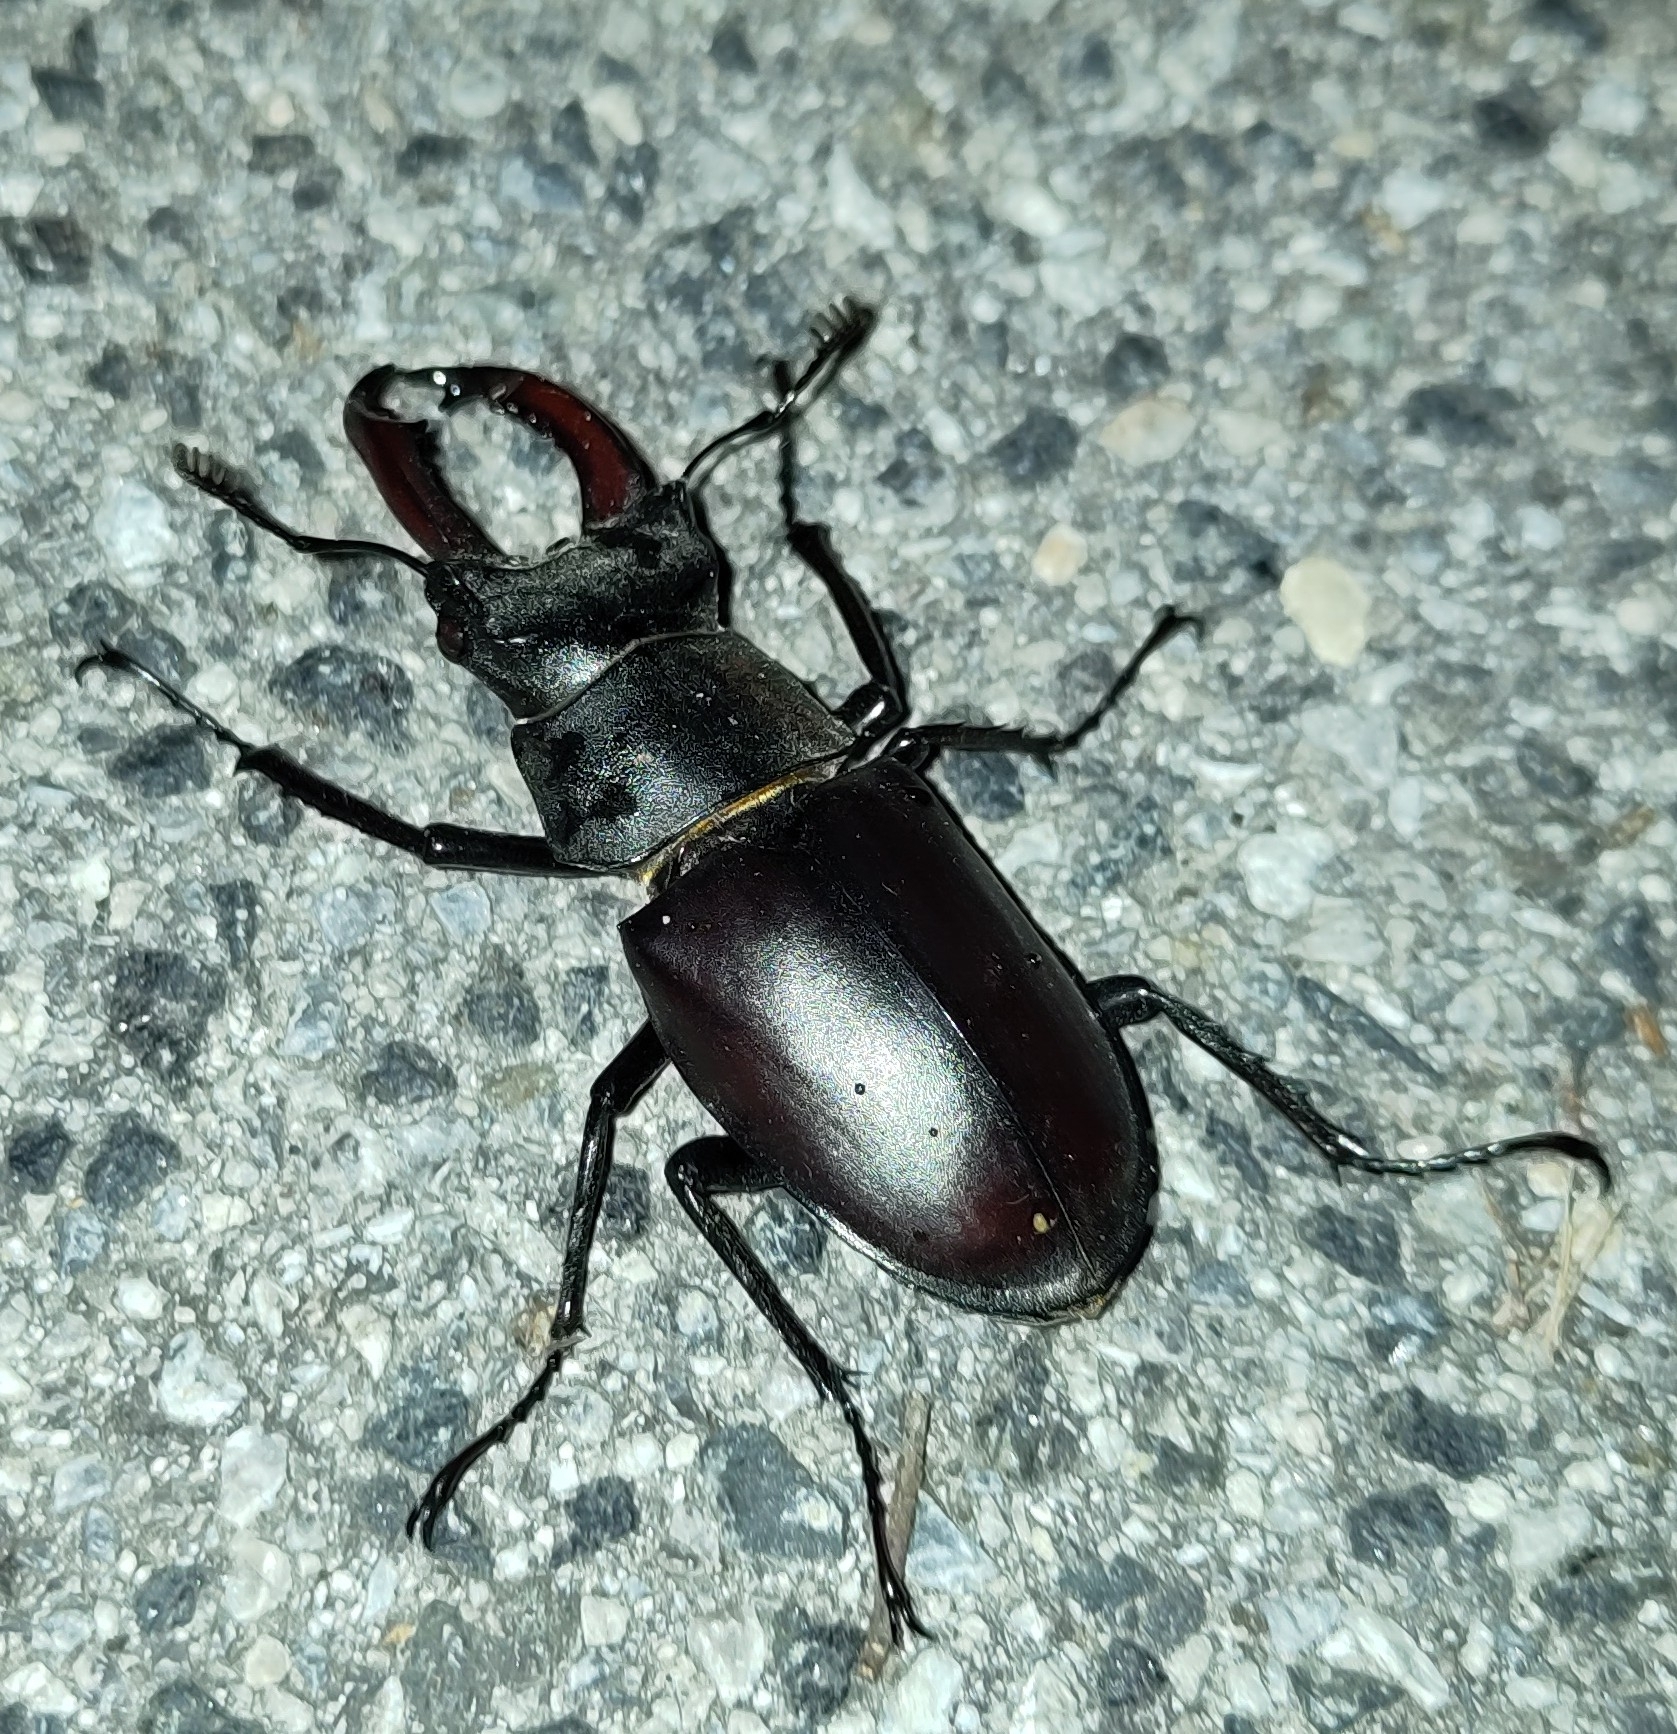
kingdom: Animalia
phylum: Arthropoda
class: Insecta
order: Coleoptera
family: Lucanidae
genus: Lucanus
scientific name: Lucanus cervus
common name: Stag beetle
